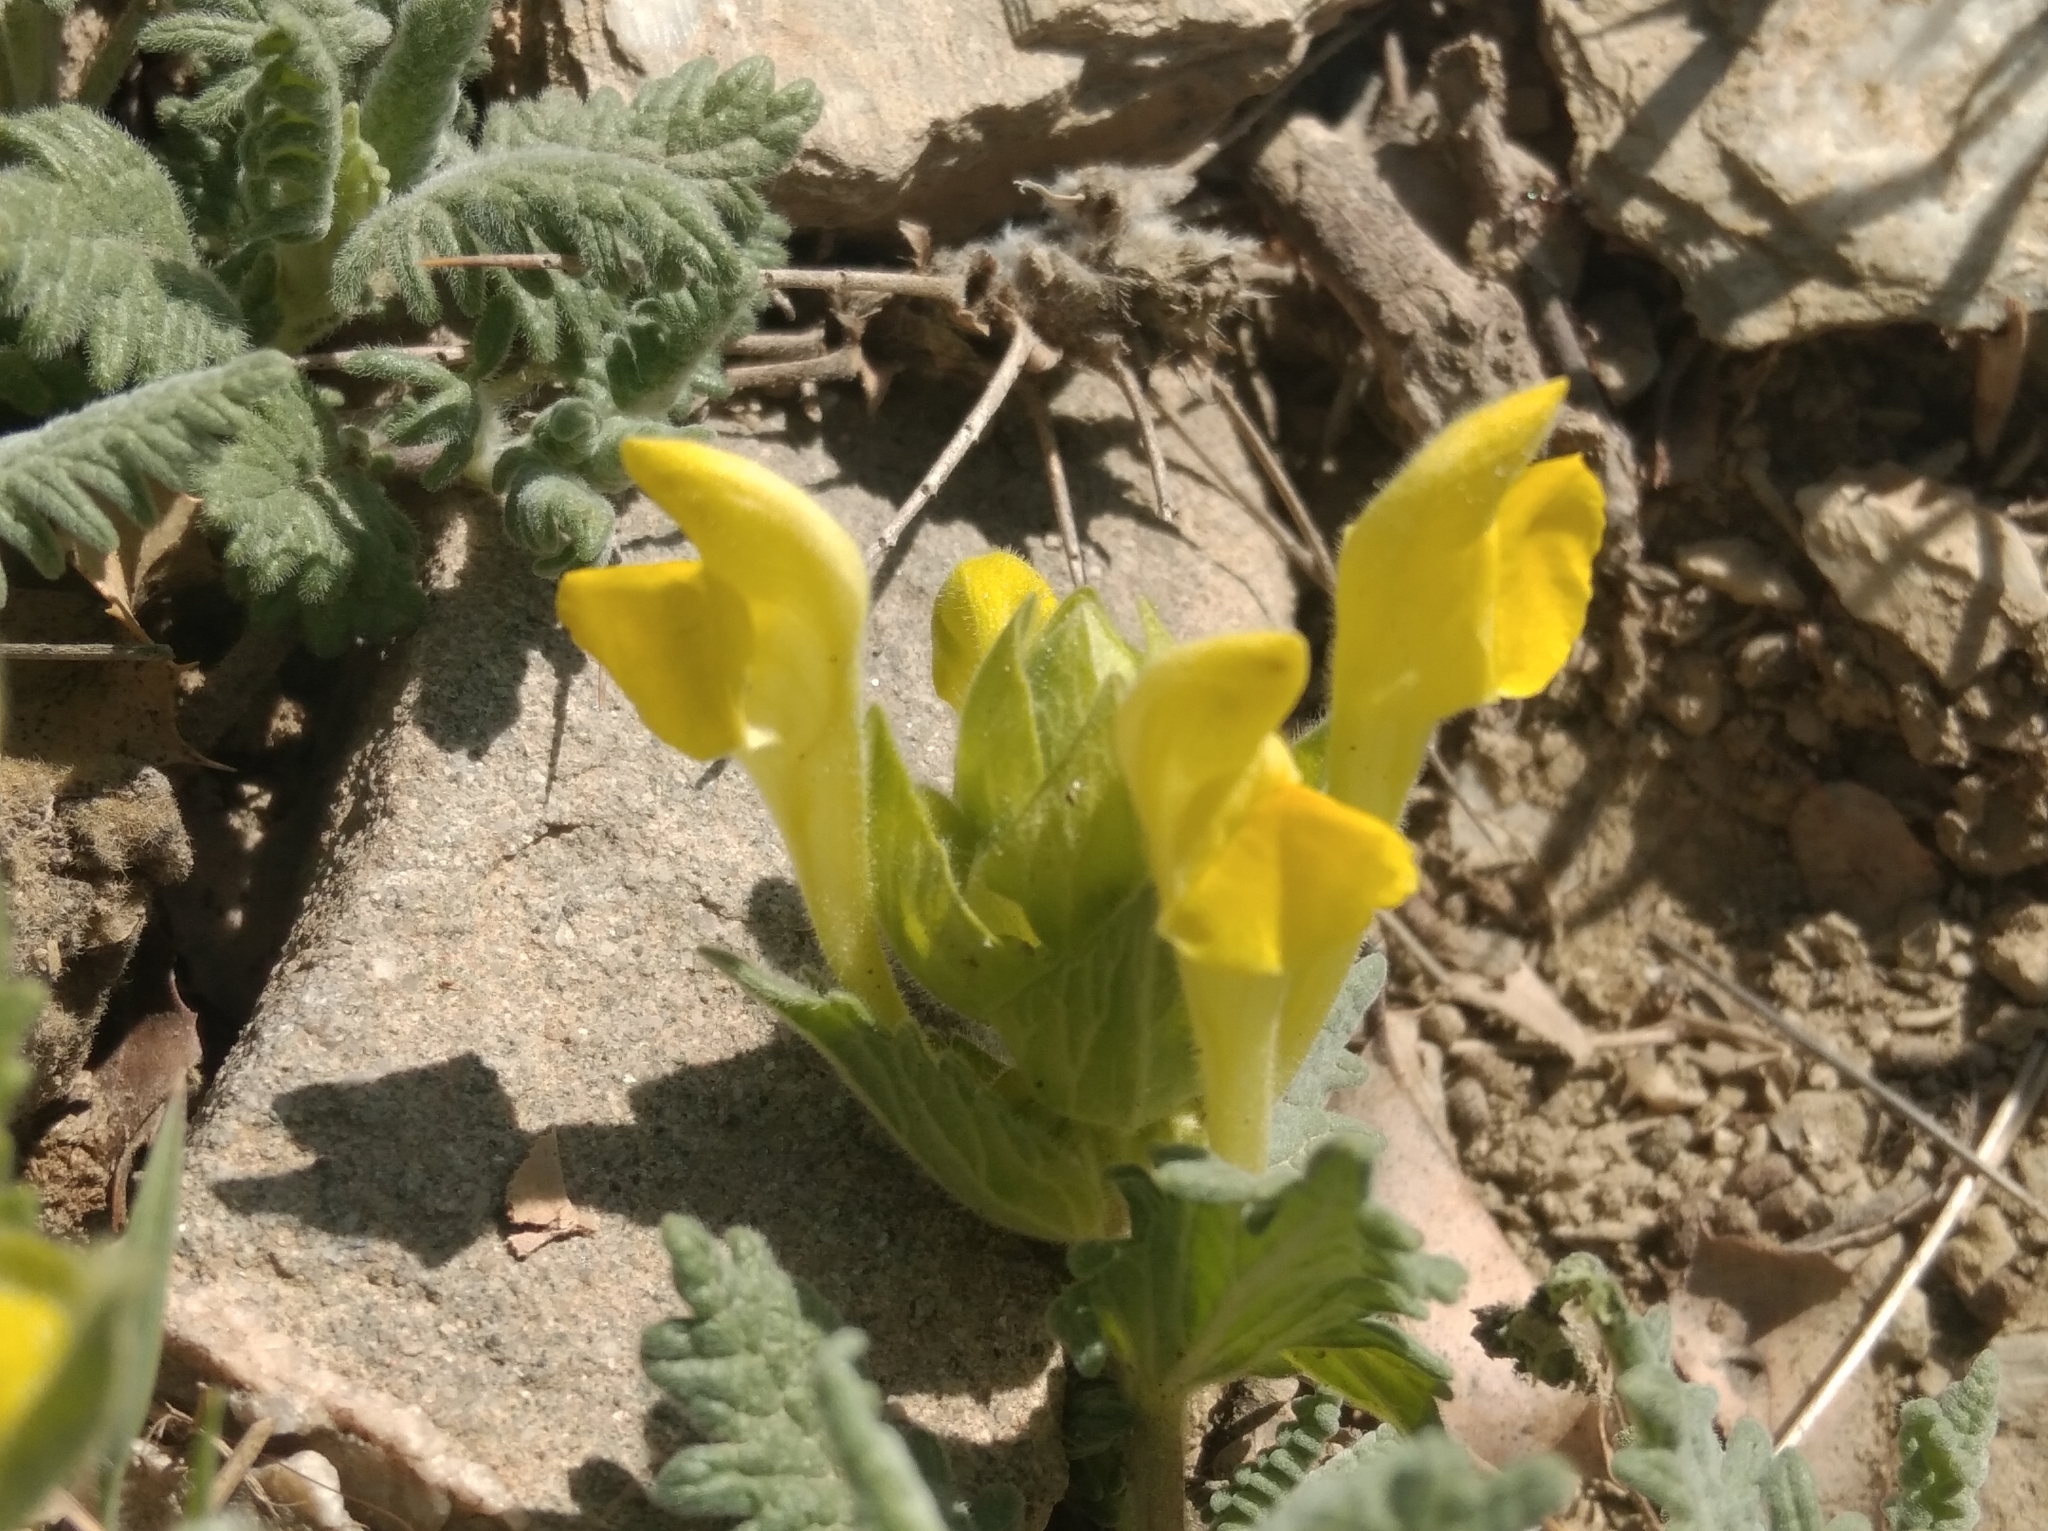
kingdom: Plantae
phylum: Tracheophyta
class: Magnoliopsida
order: Lamiales
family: Lamiaceae
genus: Scutellaria
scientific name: Scutellaria orientalis
